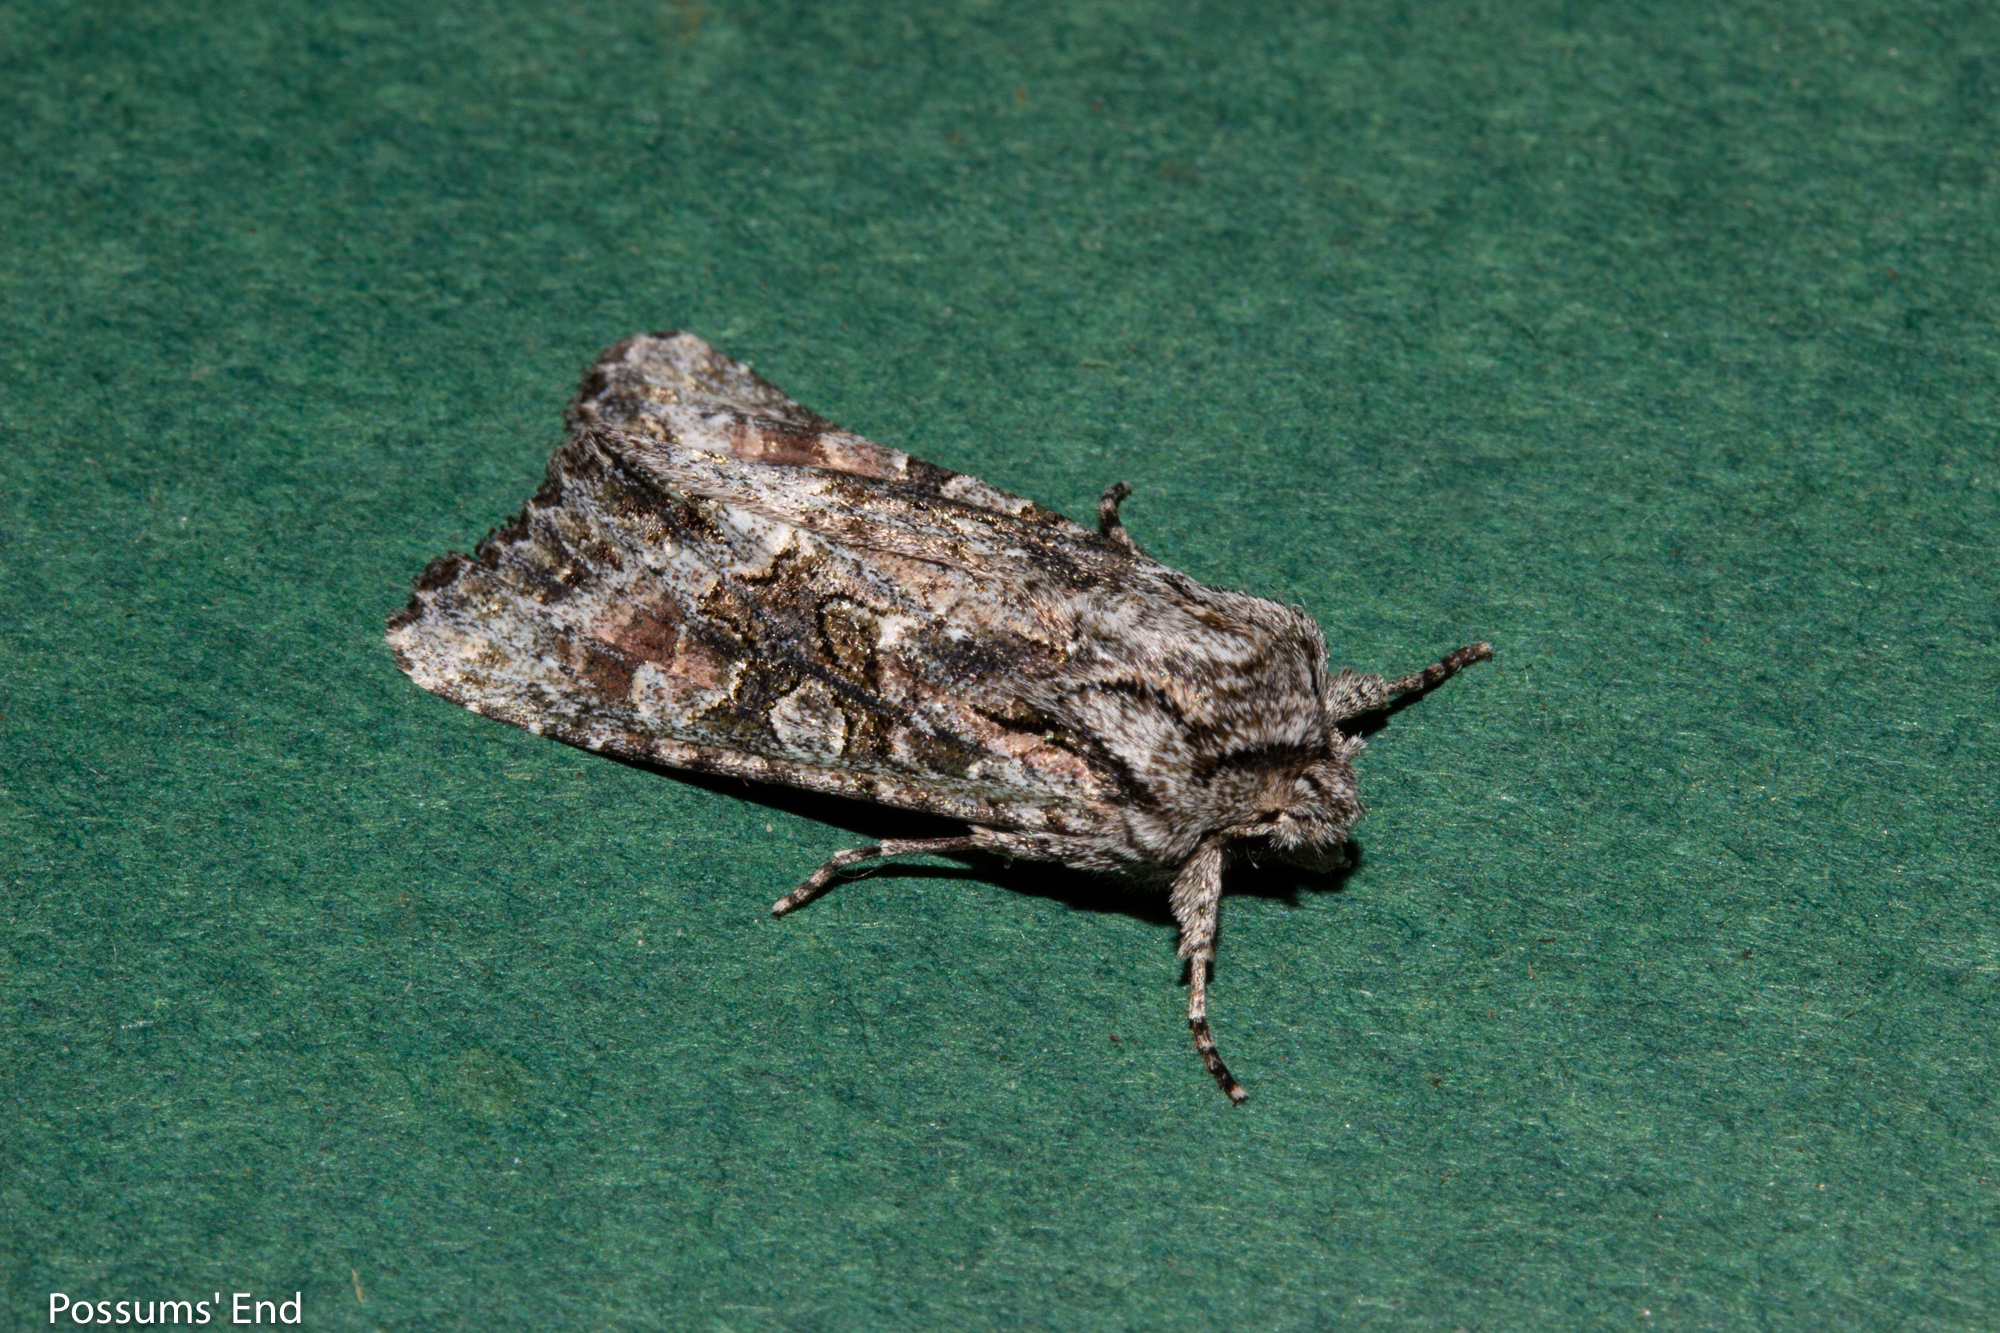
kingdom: Animalia
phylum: Arthropoda
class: Insecta
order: Lepidoptera
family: Noctuidae
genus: Ichneutica
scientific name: Ichneutica mutans
